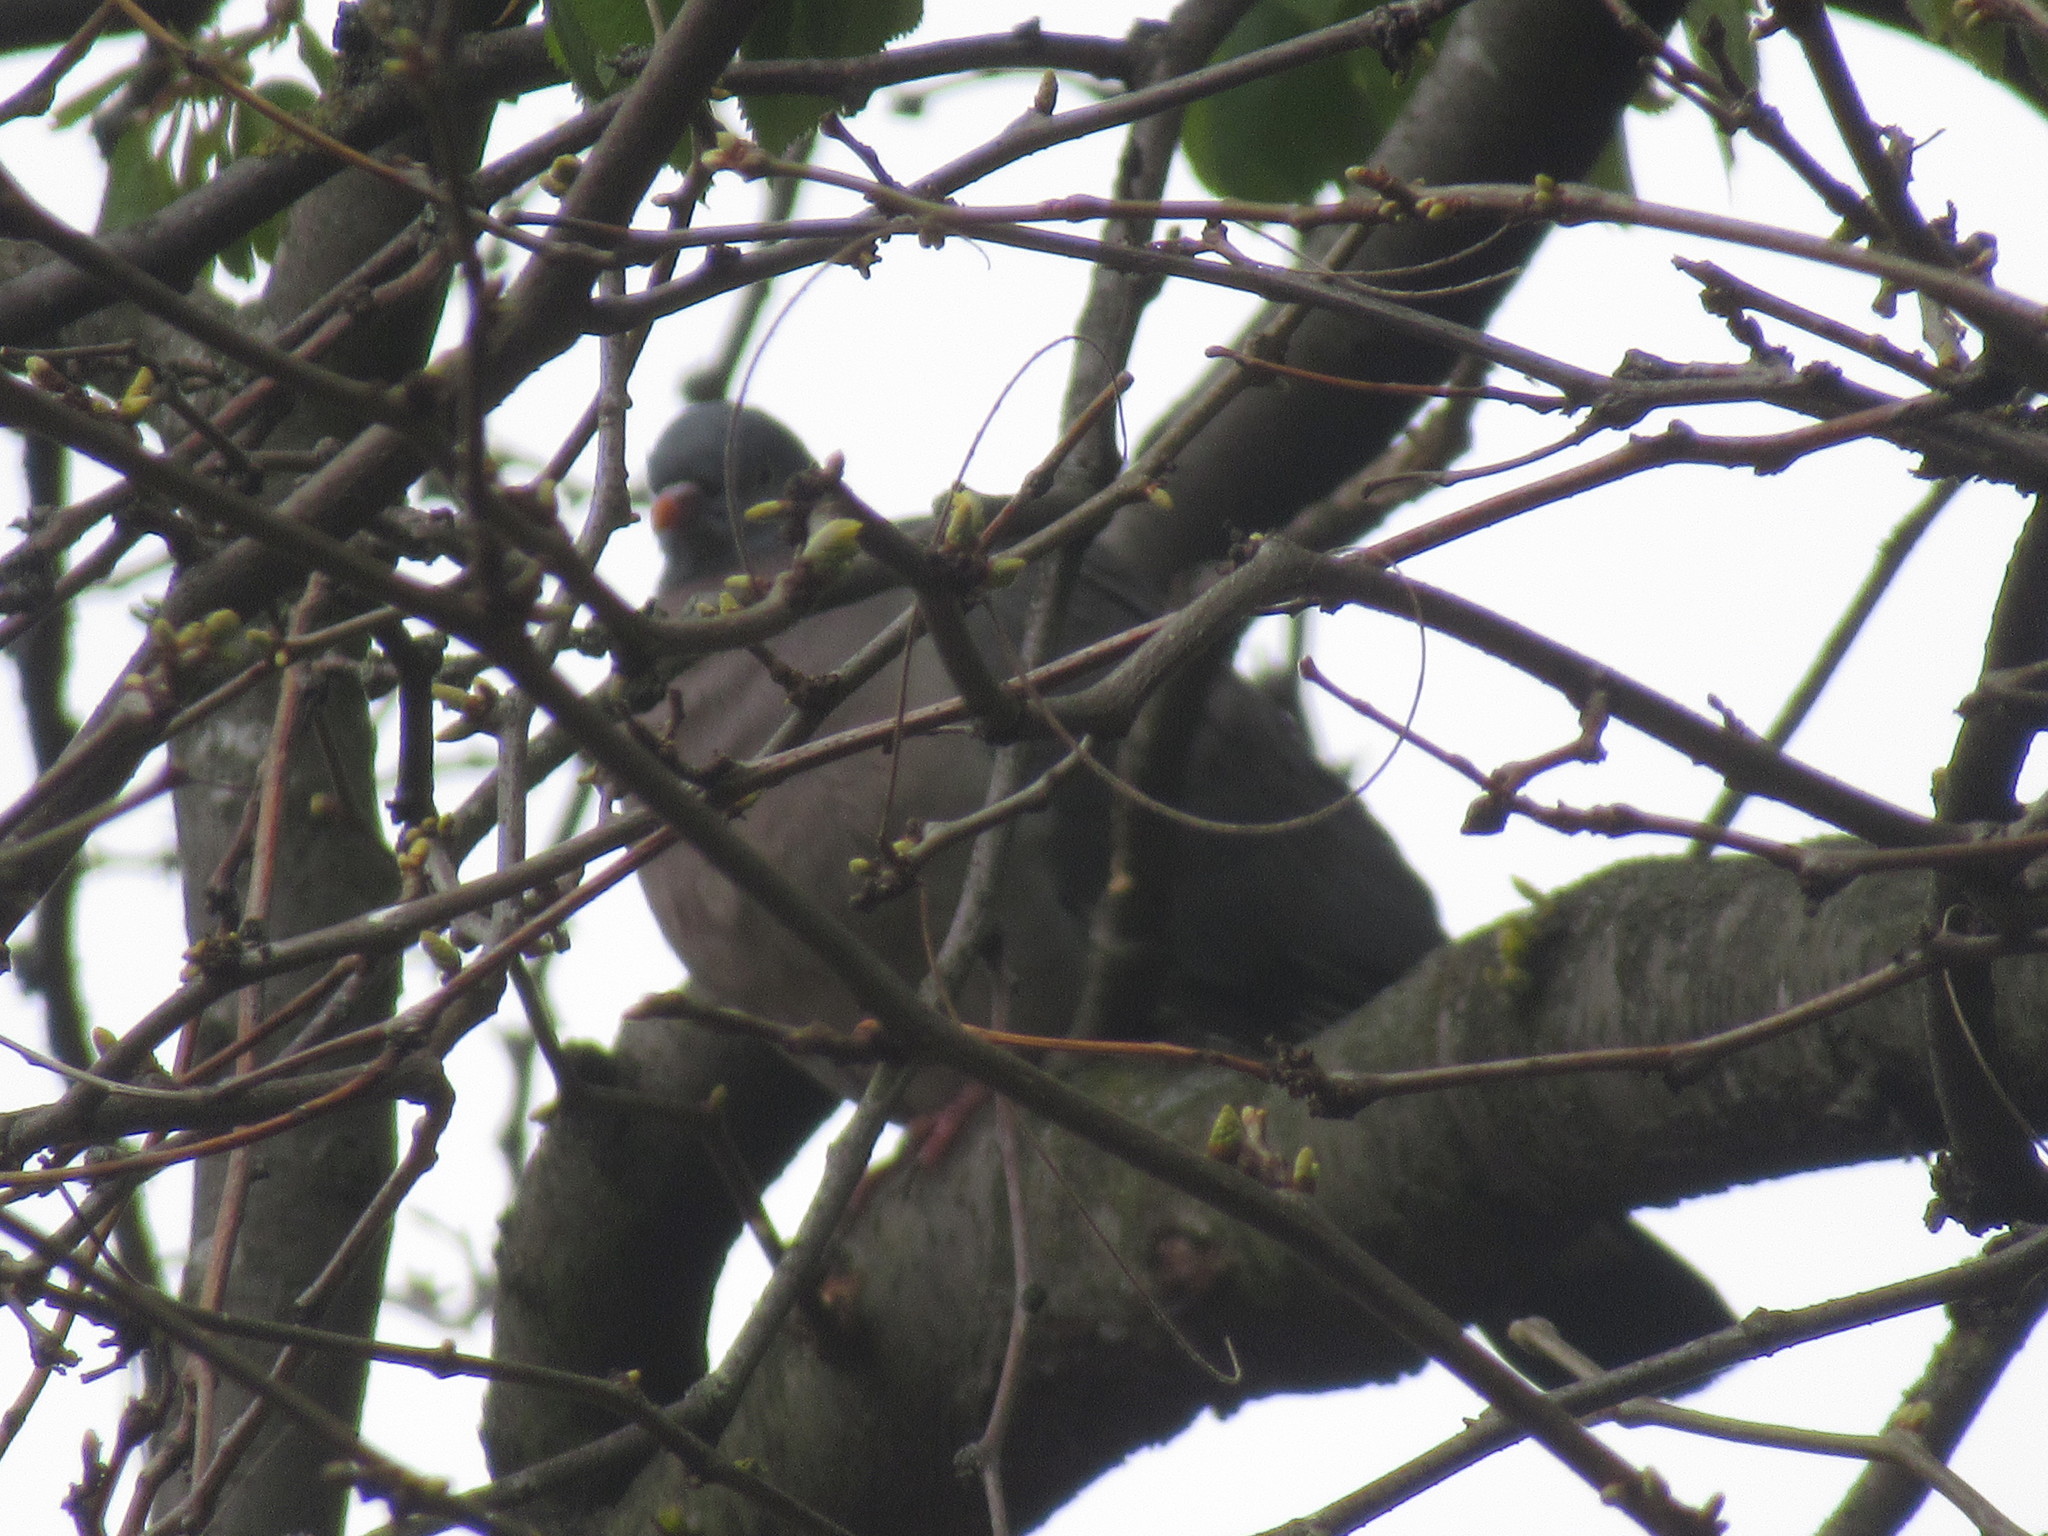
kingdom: Animalia
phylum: Chordata
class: Aves
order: Columbiformes
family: Columbidae
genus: Columba
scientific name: Columba palumbus
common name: Common wood pigeon
